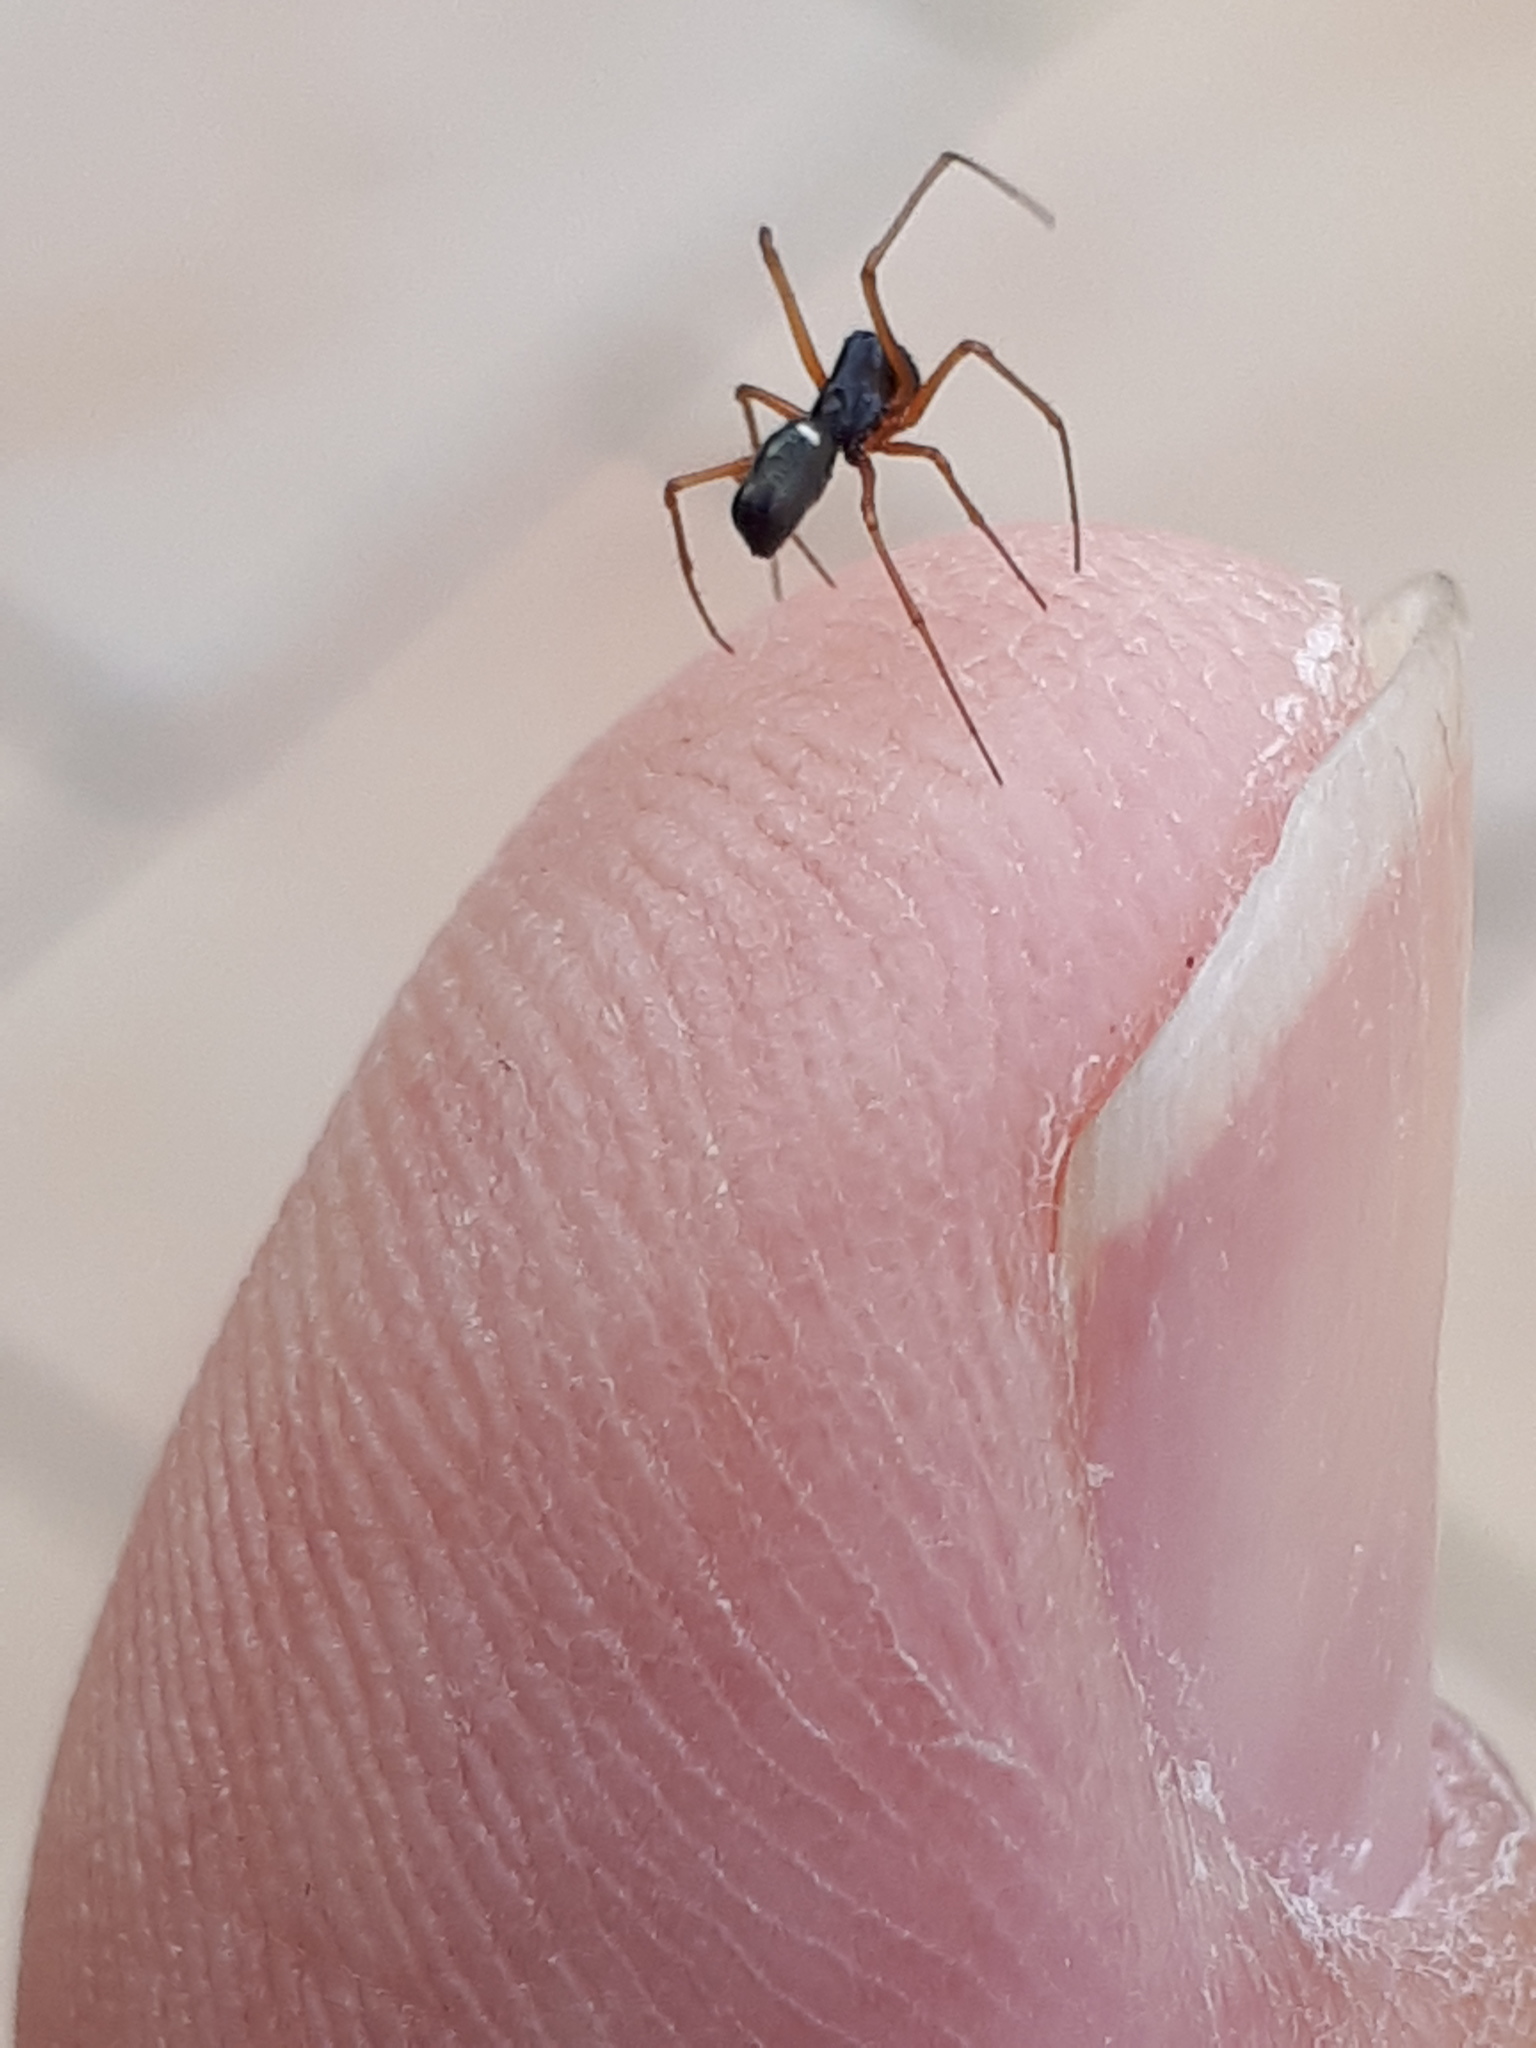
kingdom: Animalia
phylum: Arthropoda
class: Arachnida
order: Araneae
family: Linyphiidae
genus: Microlinyphia
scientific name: Microlinyphia pusilla
